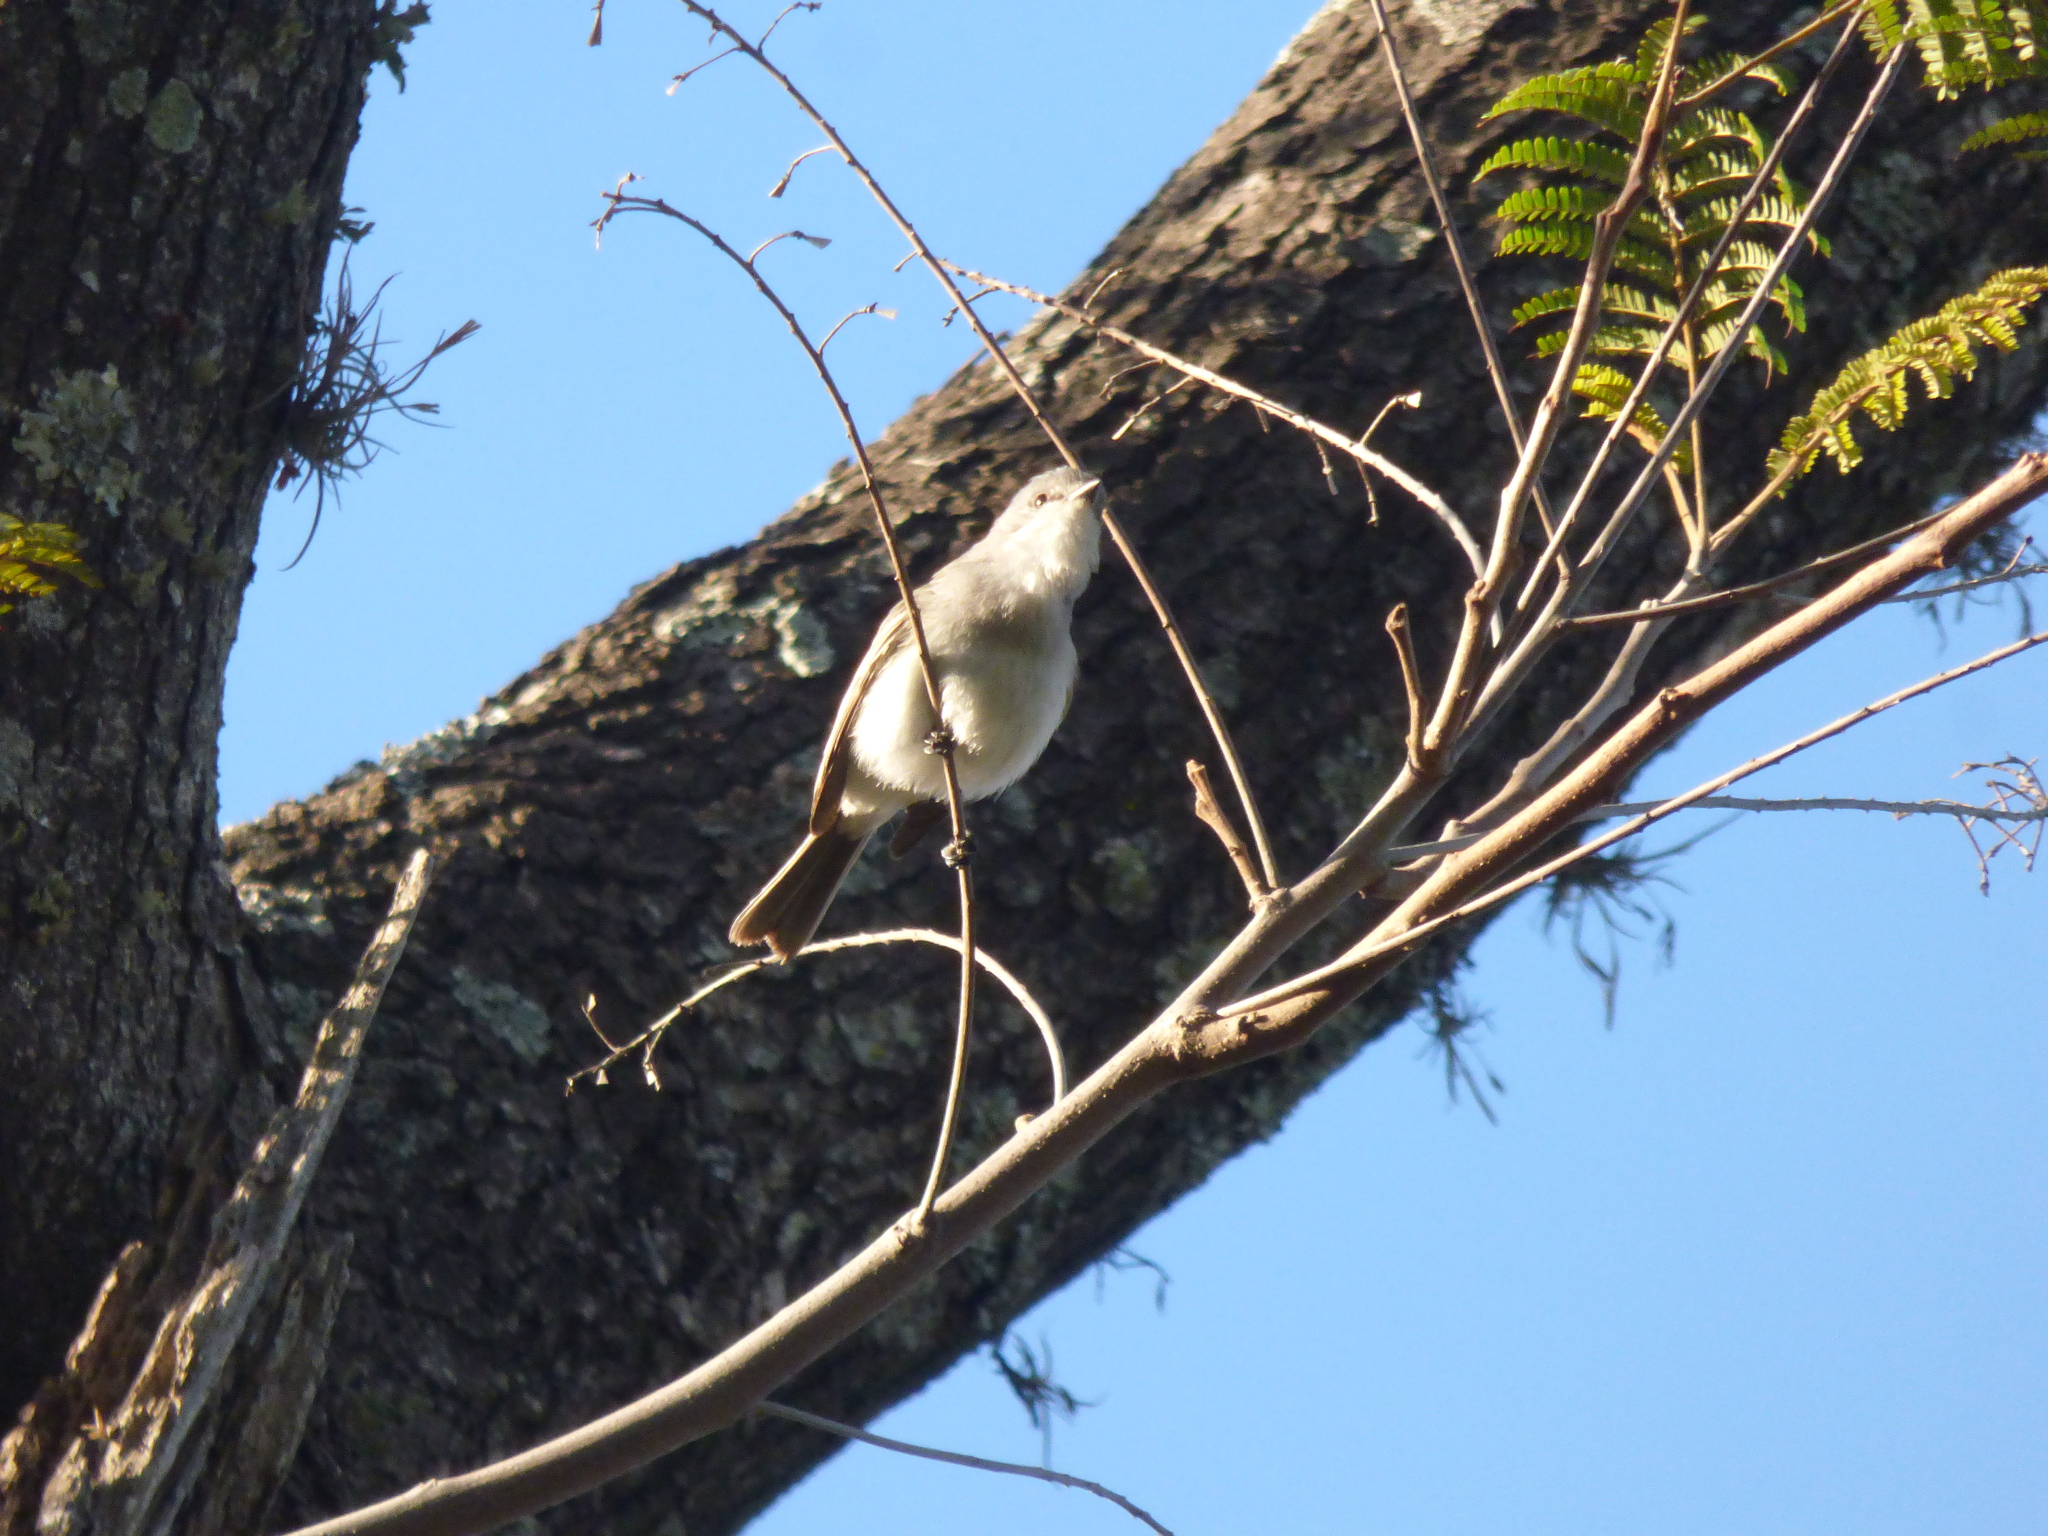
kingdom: Animalia
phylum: Chordata
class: Aves
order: Passeriformes
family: Tyrannidae
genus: Suiriri
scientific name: Suiriri suiriri
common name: Suiriri flycatcher
